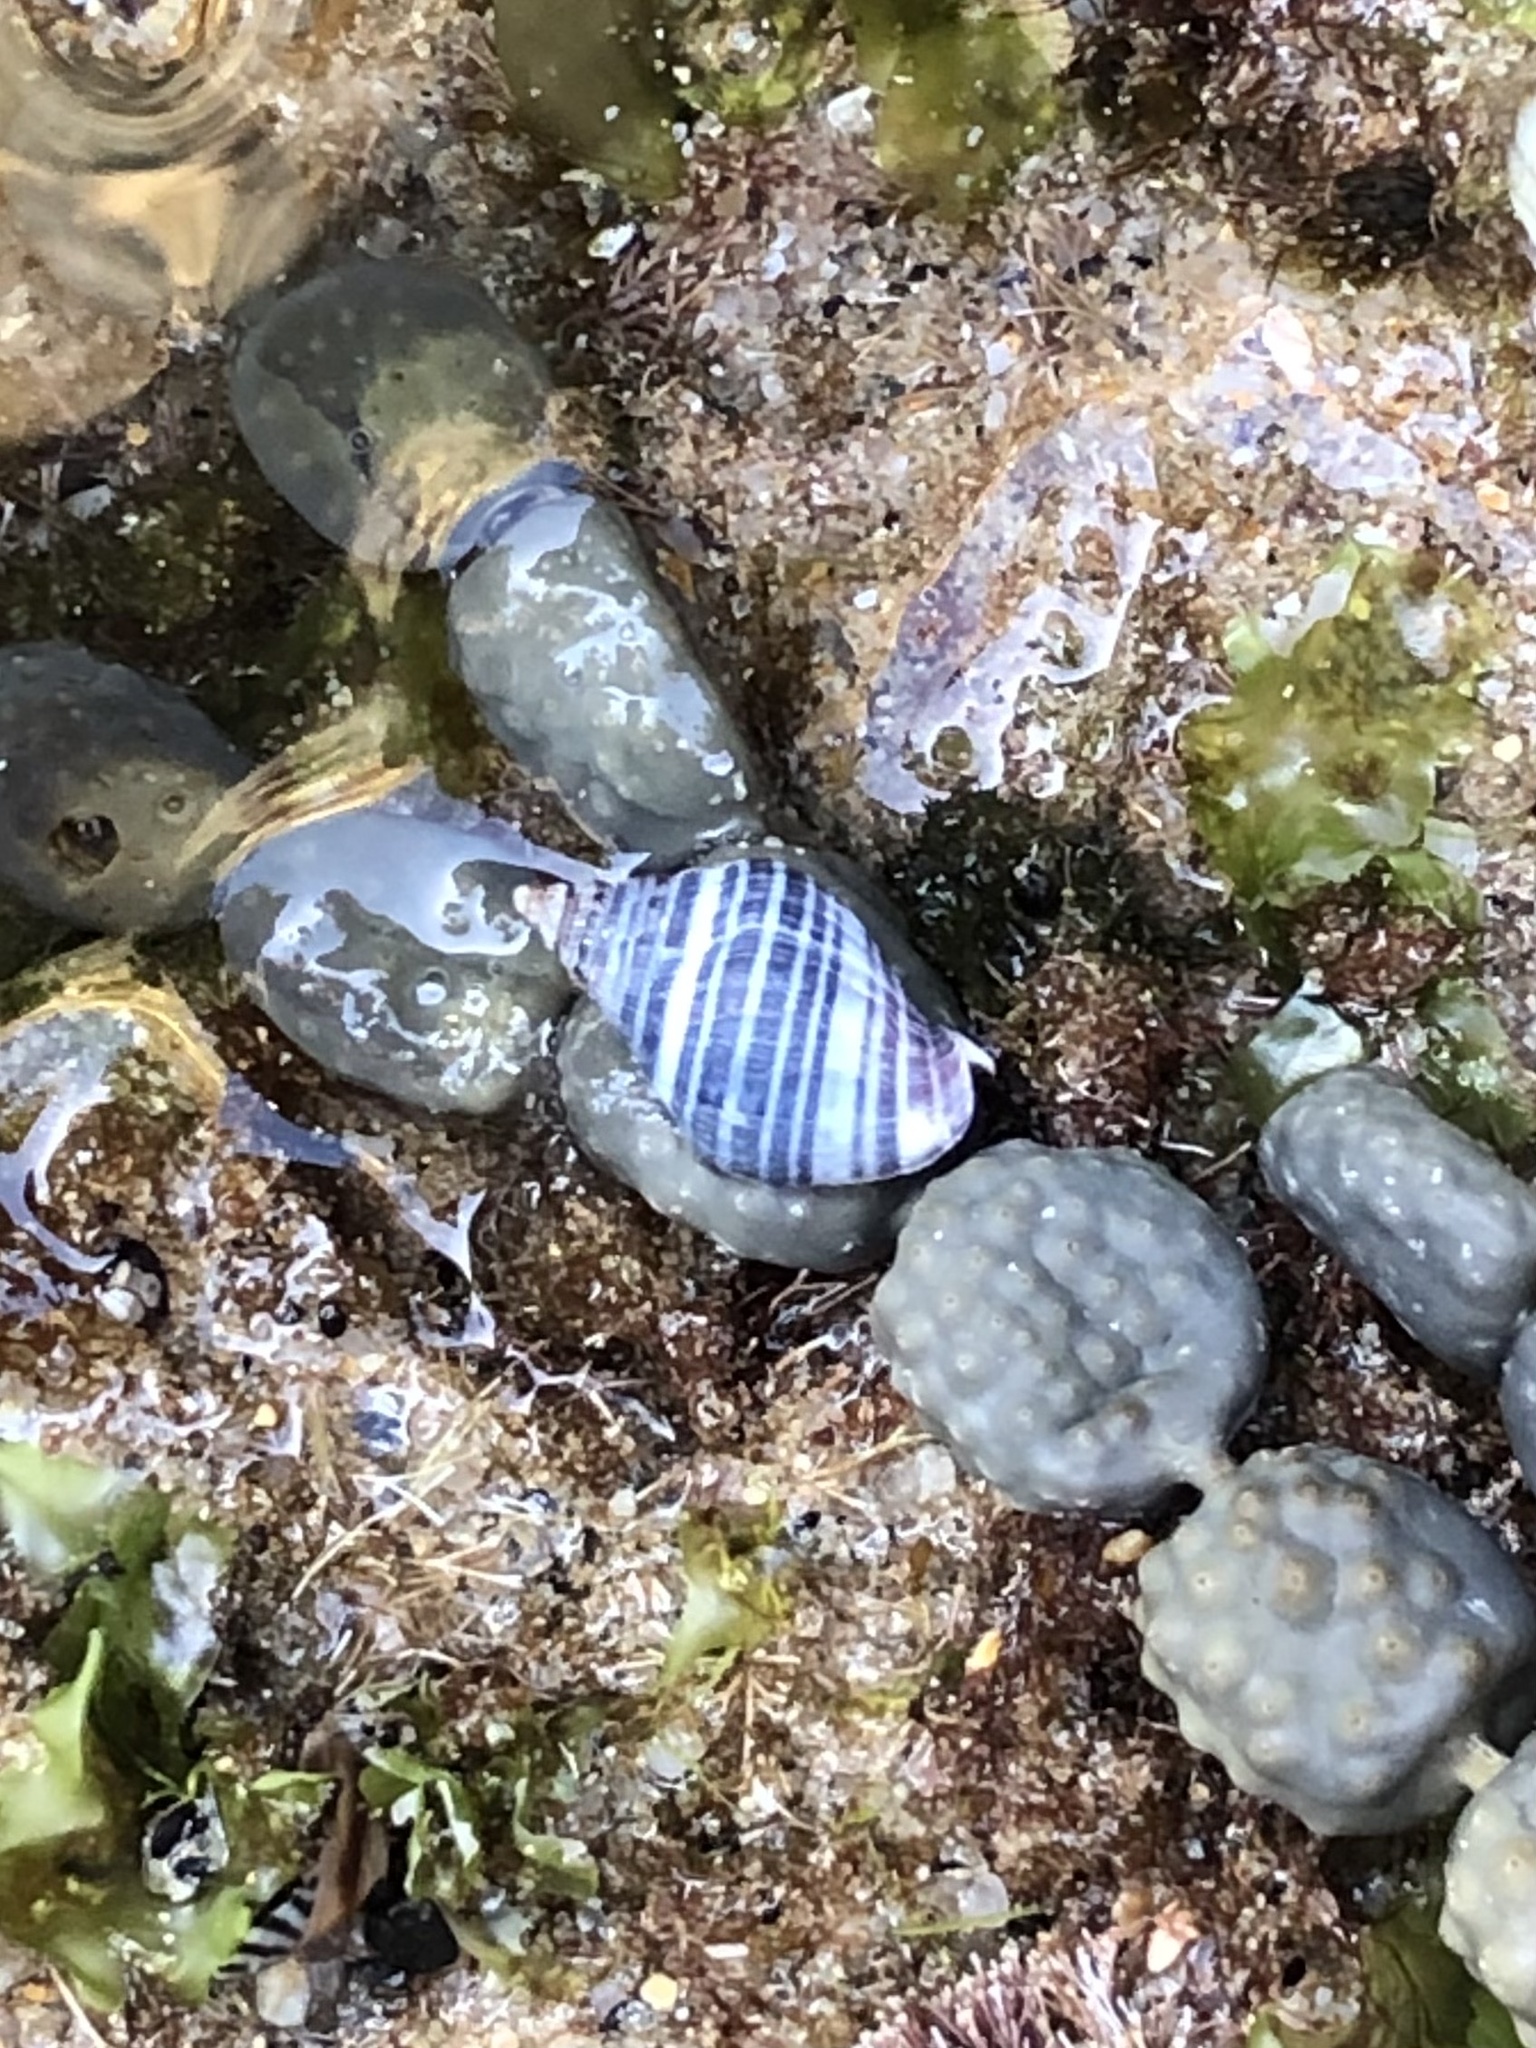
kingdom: Animalia
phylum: Mollusca
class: Gastropoda
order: Neogastropoda
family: Cominellidae
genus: Cominella
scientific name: Cominella lineolata
